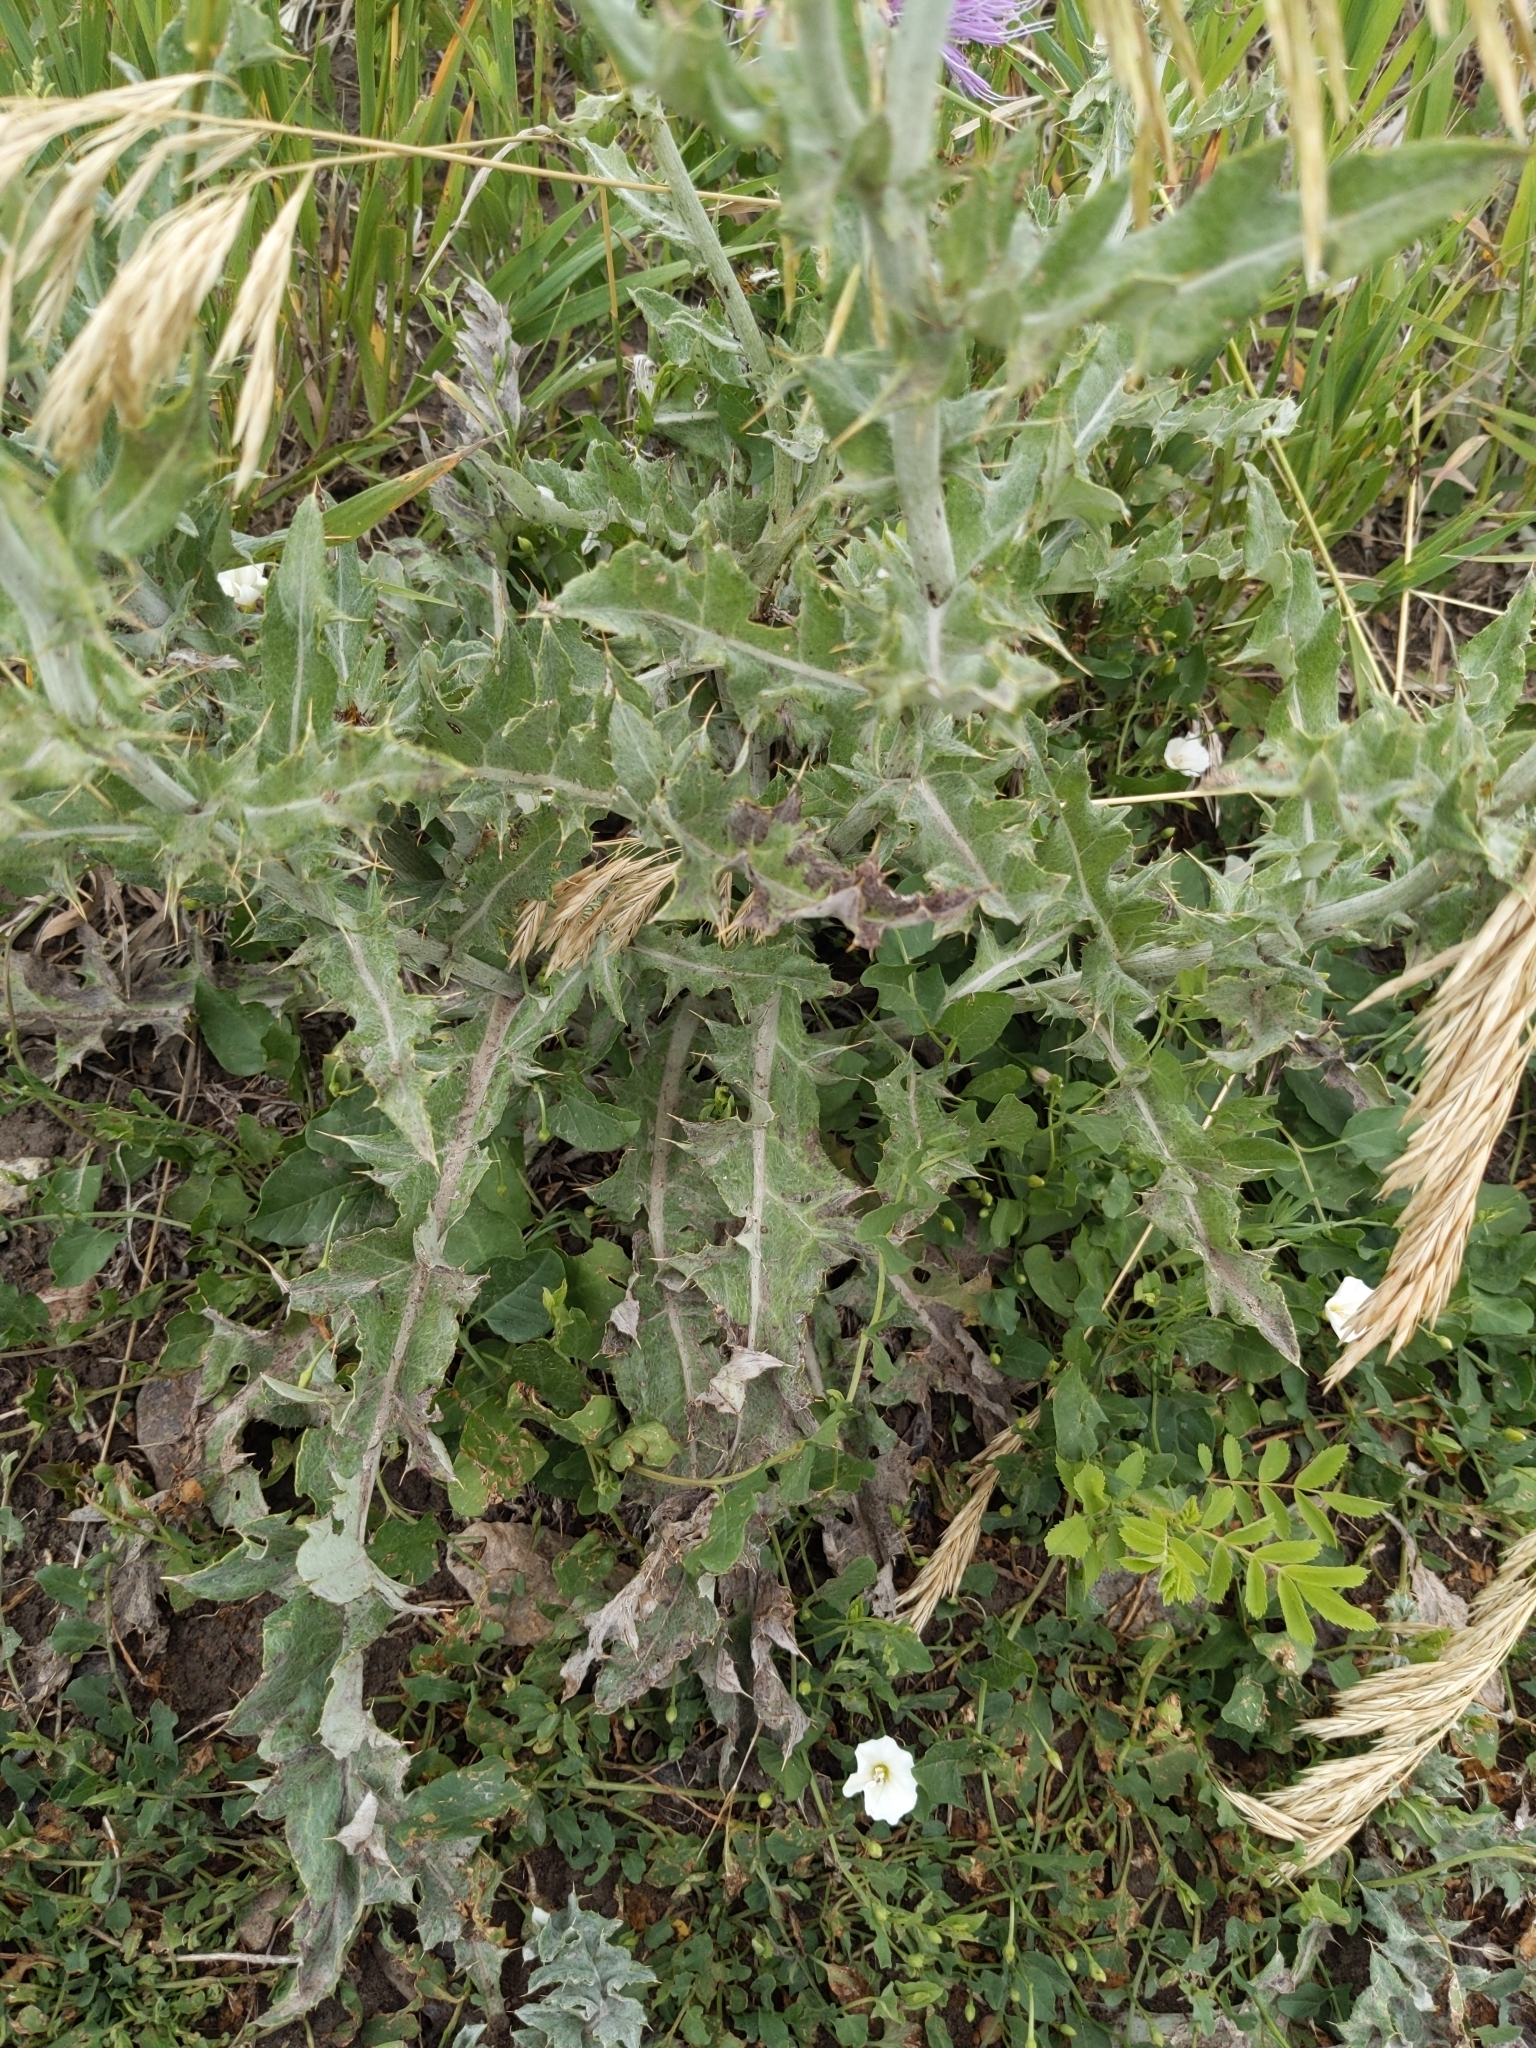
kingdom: Plantae
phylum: Tracheophyta
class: Magnoliopsida
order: Asterales
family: Asteraceae
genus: Cirsium
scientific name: Cirsium undulatum
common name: Pasture thistle
